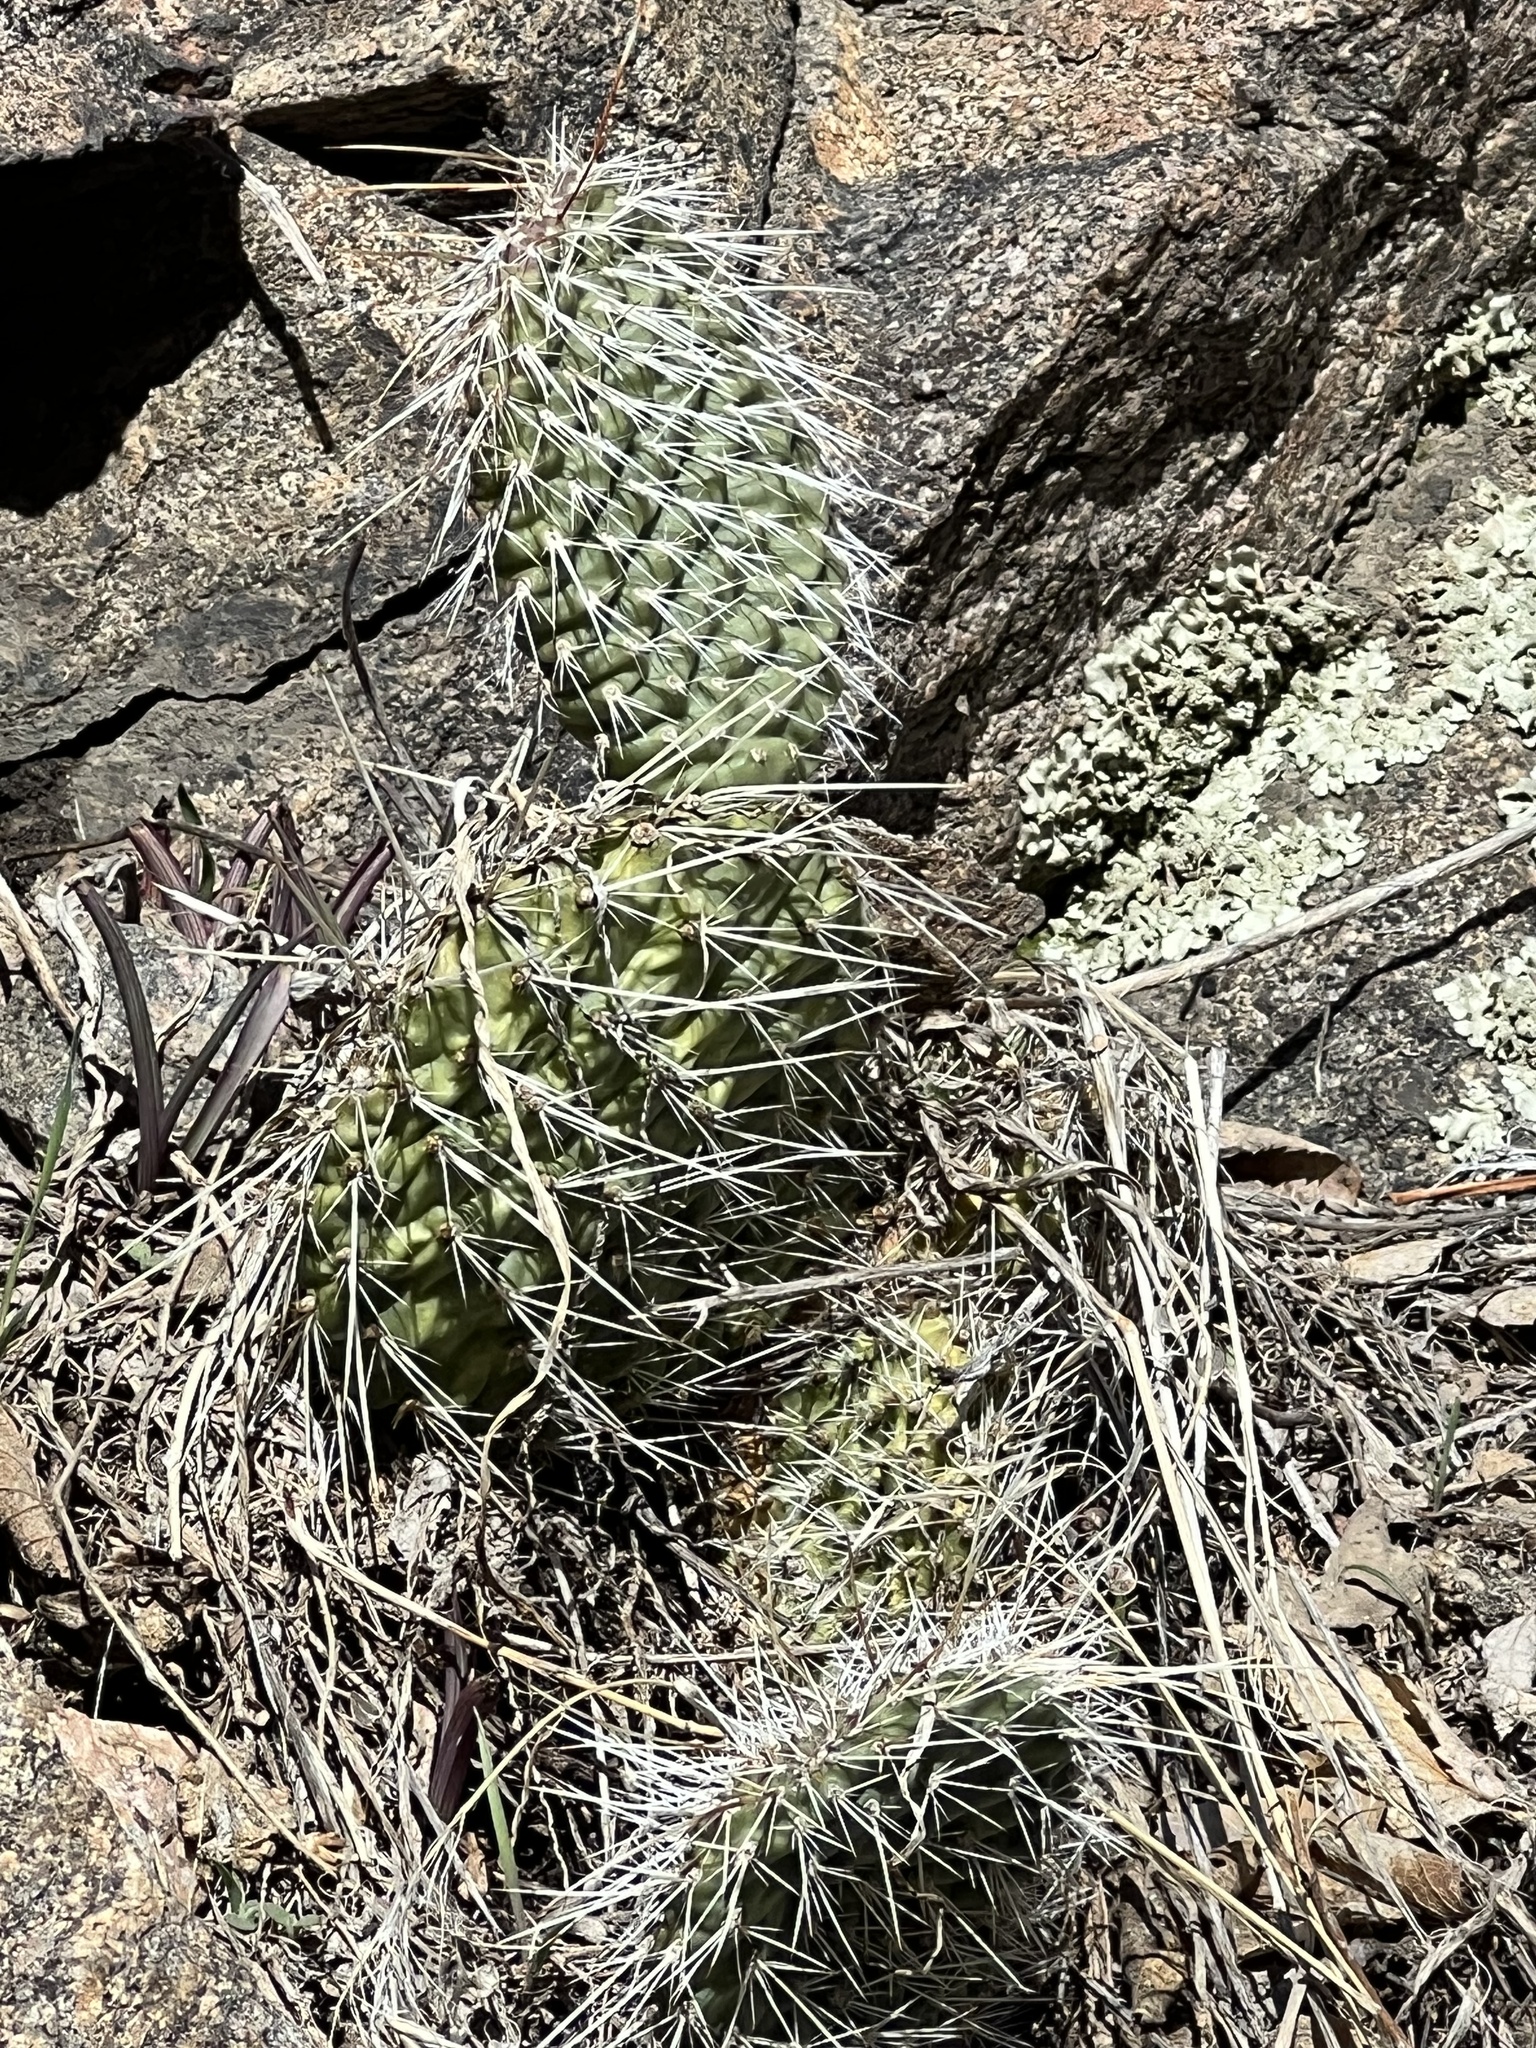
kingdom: Plantae
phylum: Tracheophyta
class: Magnoliopsida
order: Caryophyllales
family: Cactaceae
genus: Opuntia
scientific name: Opuntia polyacantha
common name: Plains prickly-pear
